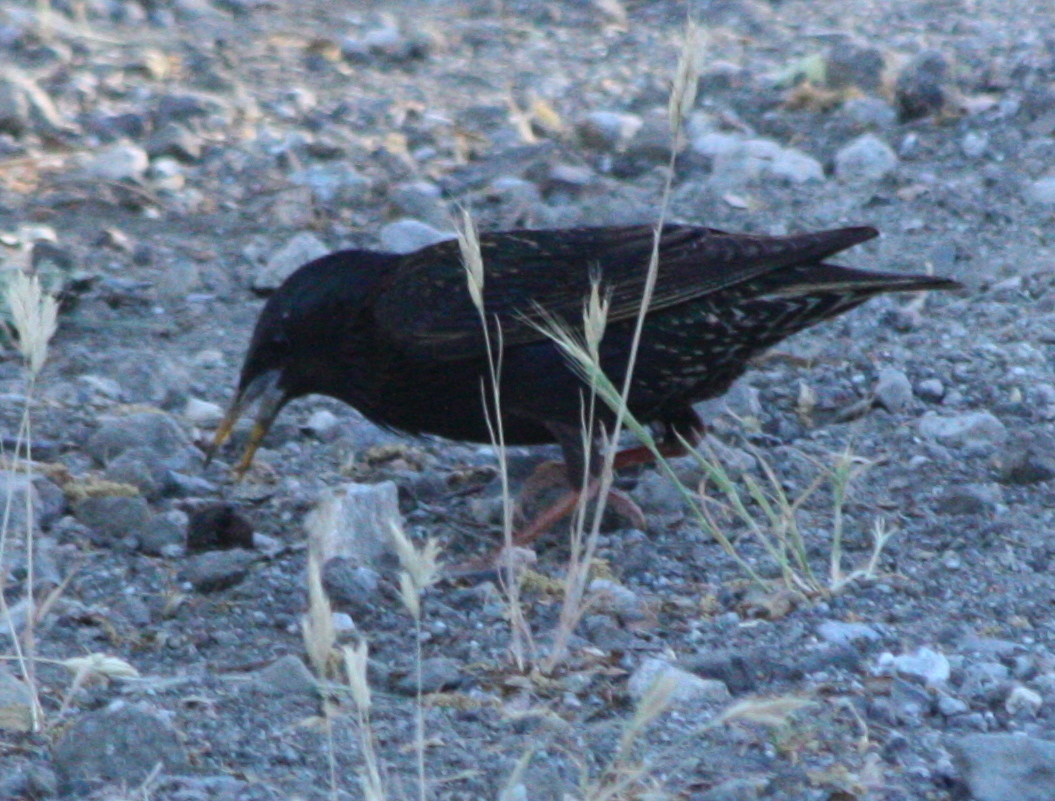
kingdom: Animalia
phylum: Chordata
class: Aves
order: Passeriformes
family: Sturnidae
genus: Sturnus
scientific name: Sturnus vulgaris
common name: Common starling
